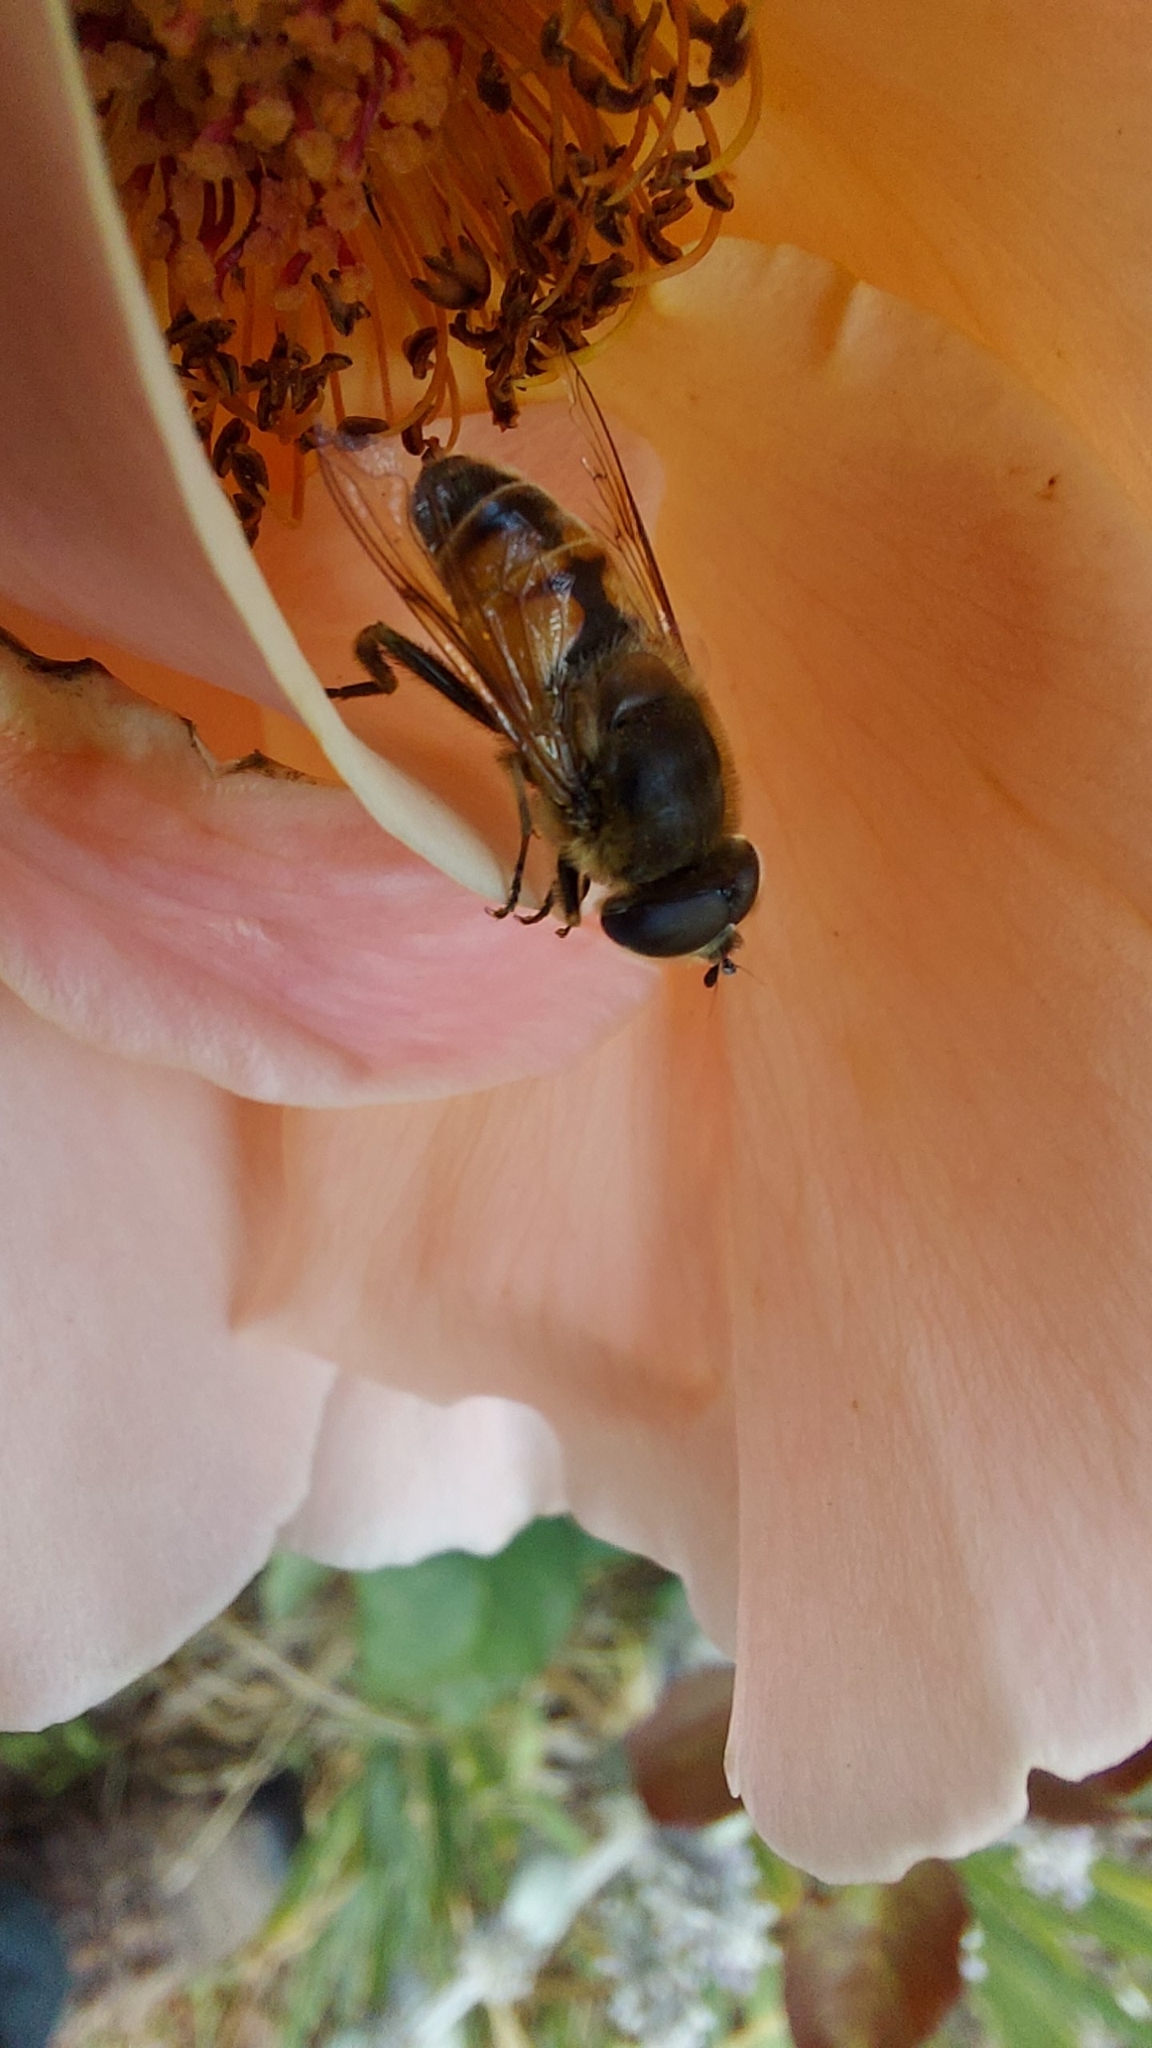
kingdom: Animalia
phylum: Arthropoda
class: Insecta
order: Diptera
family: Syrphidae
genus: Eristalis
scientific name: Eristalis tenax
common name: Drone fly
